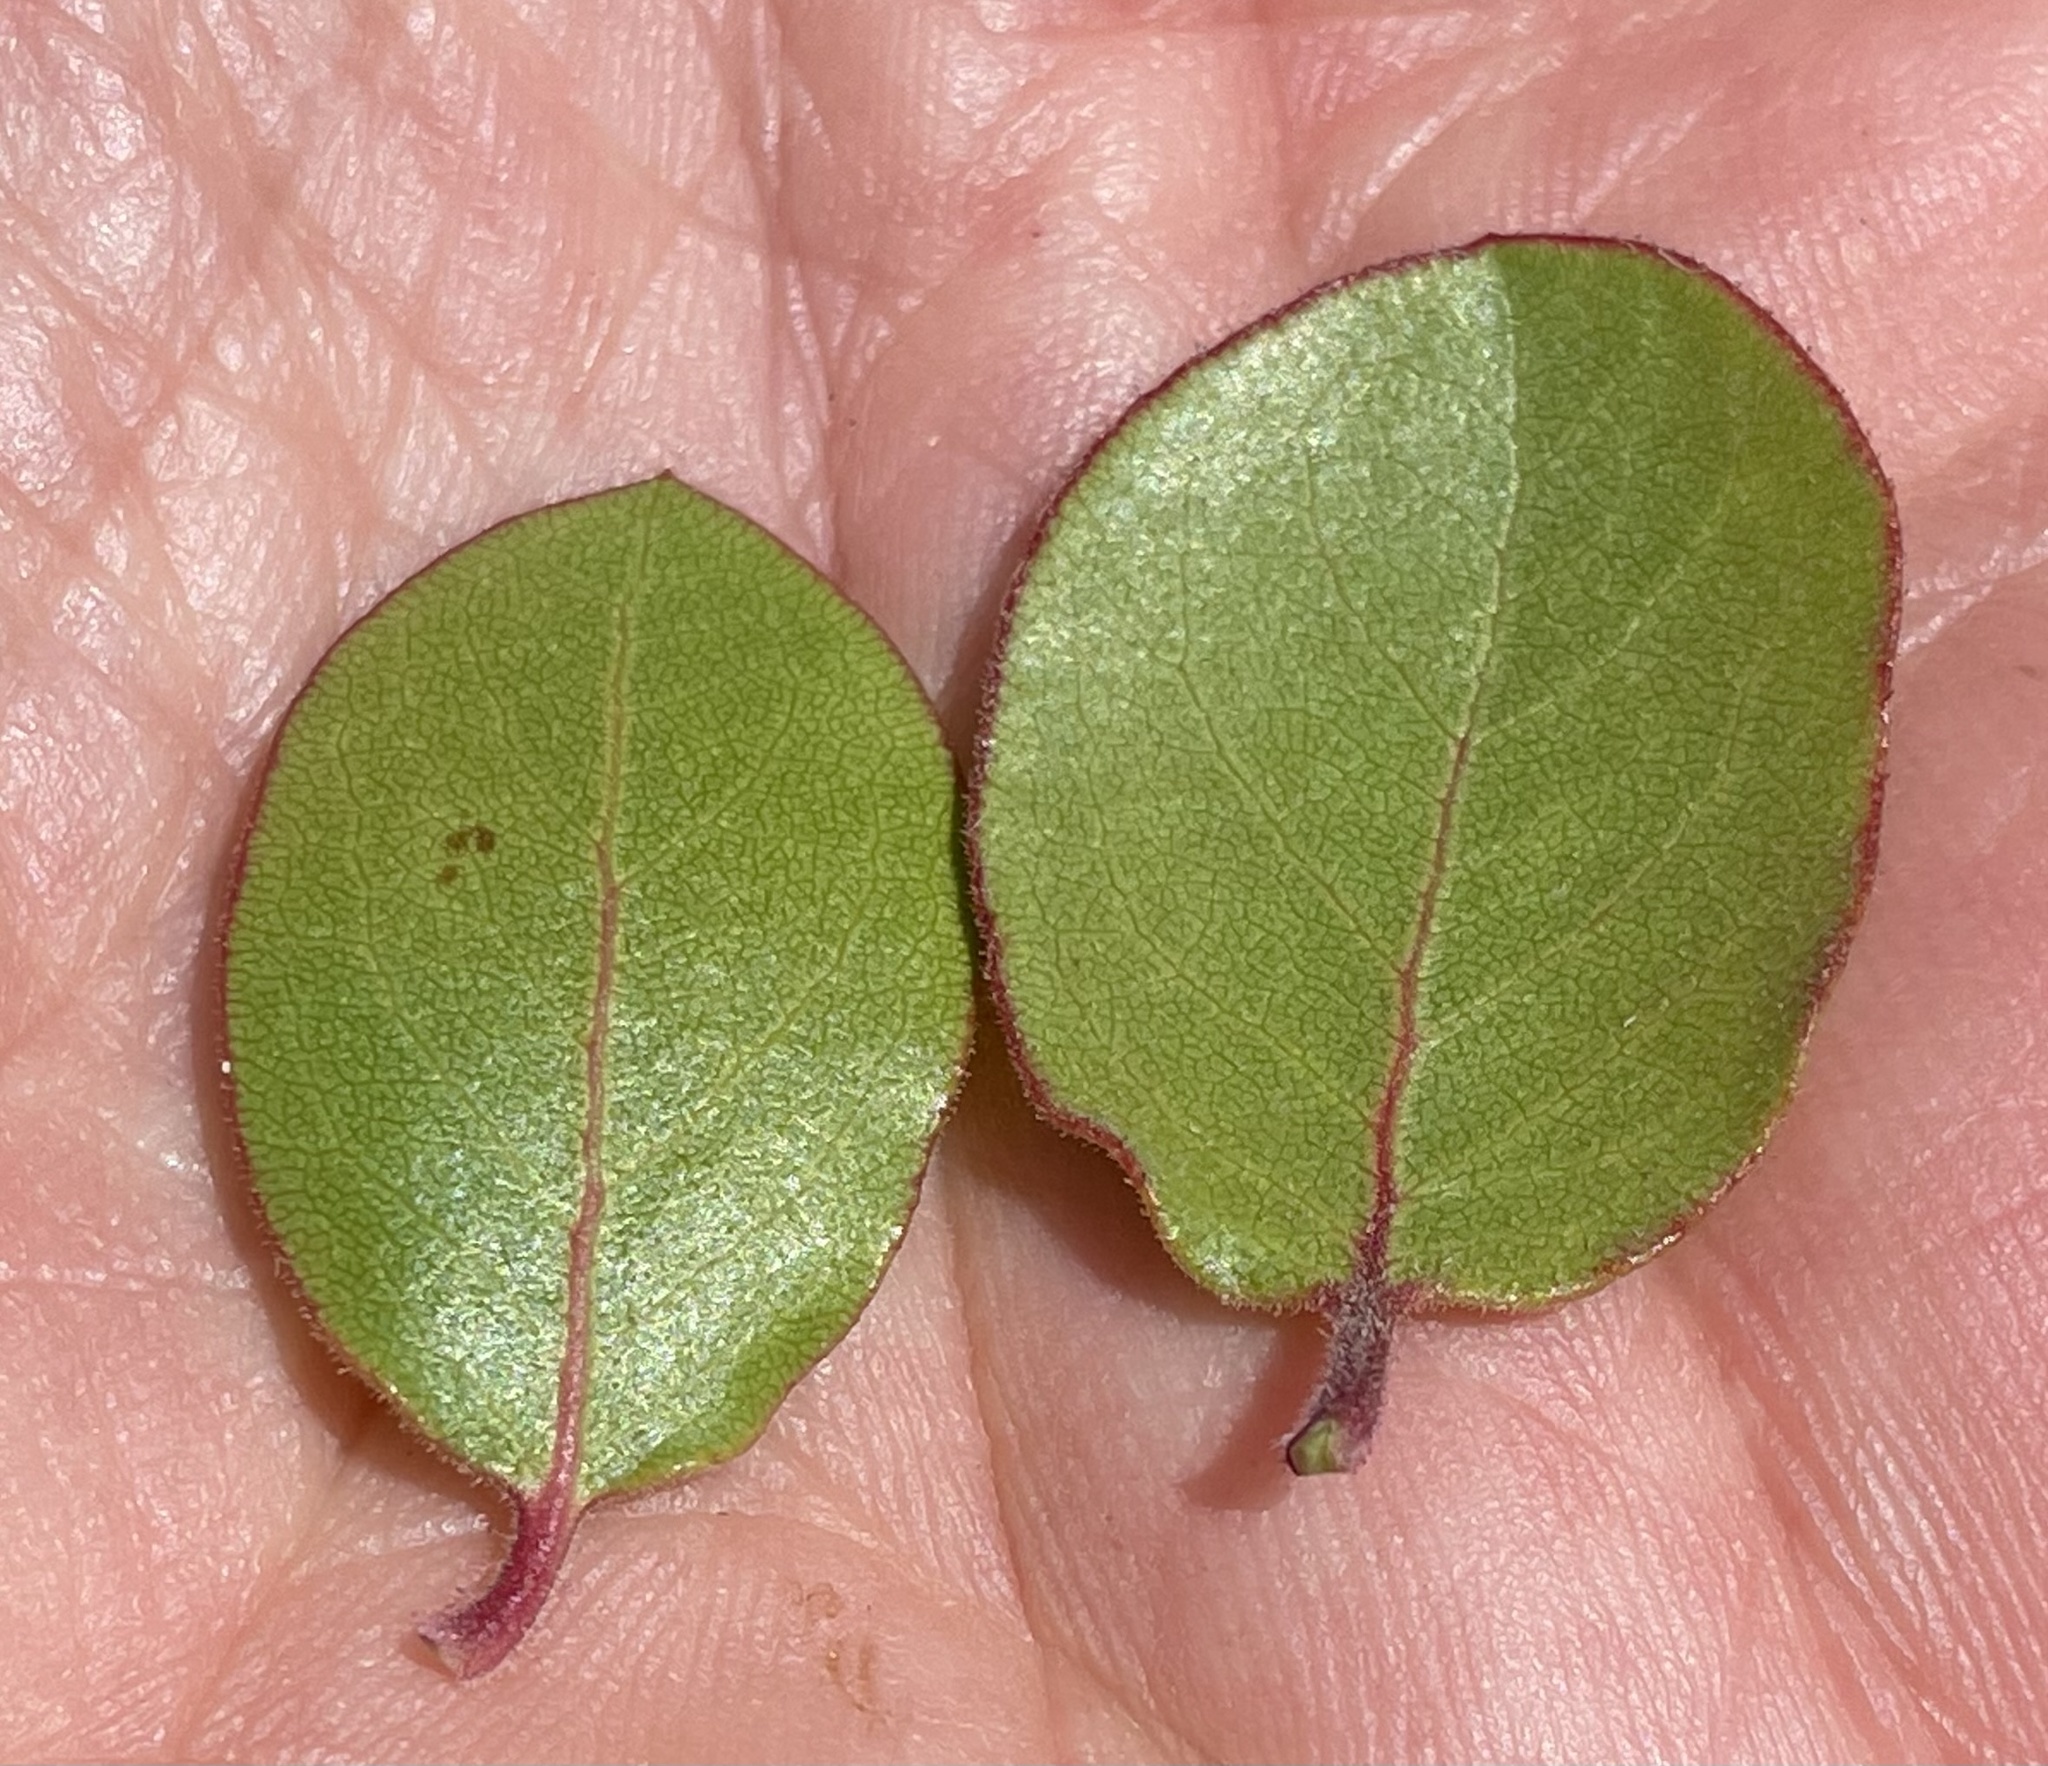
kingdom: Plantae
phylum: Tracheophyta
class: Magnoliopsida
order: Ericales
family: Ericaceae
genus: Arctostaphylos
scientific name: Arctostaphylos montereyensis
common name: Monterey manzanita
